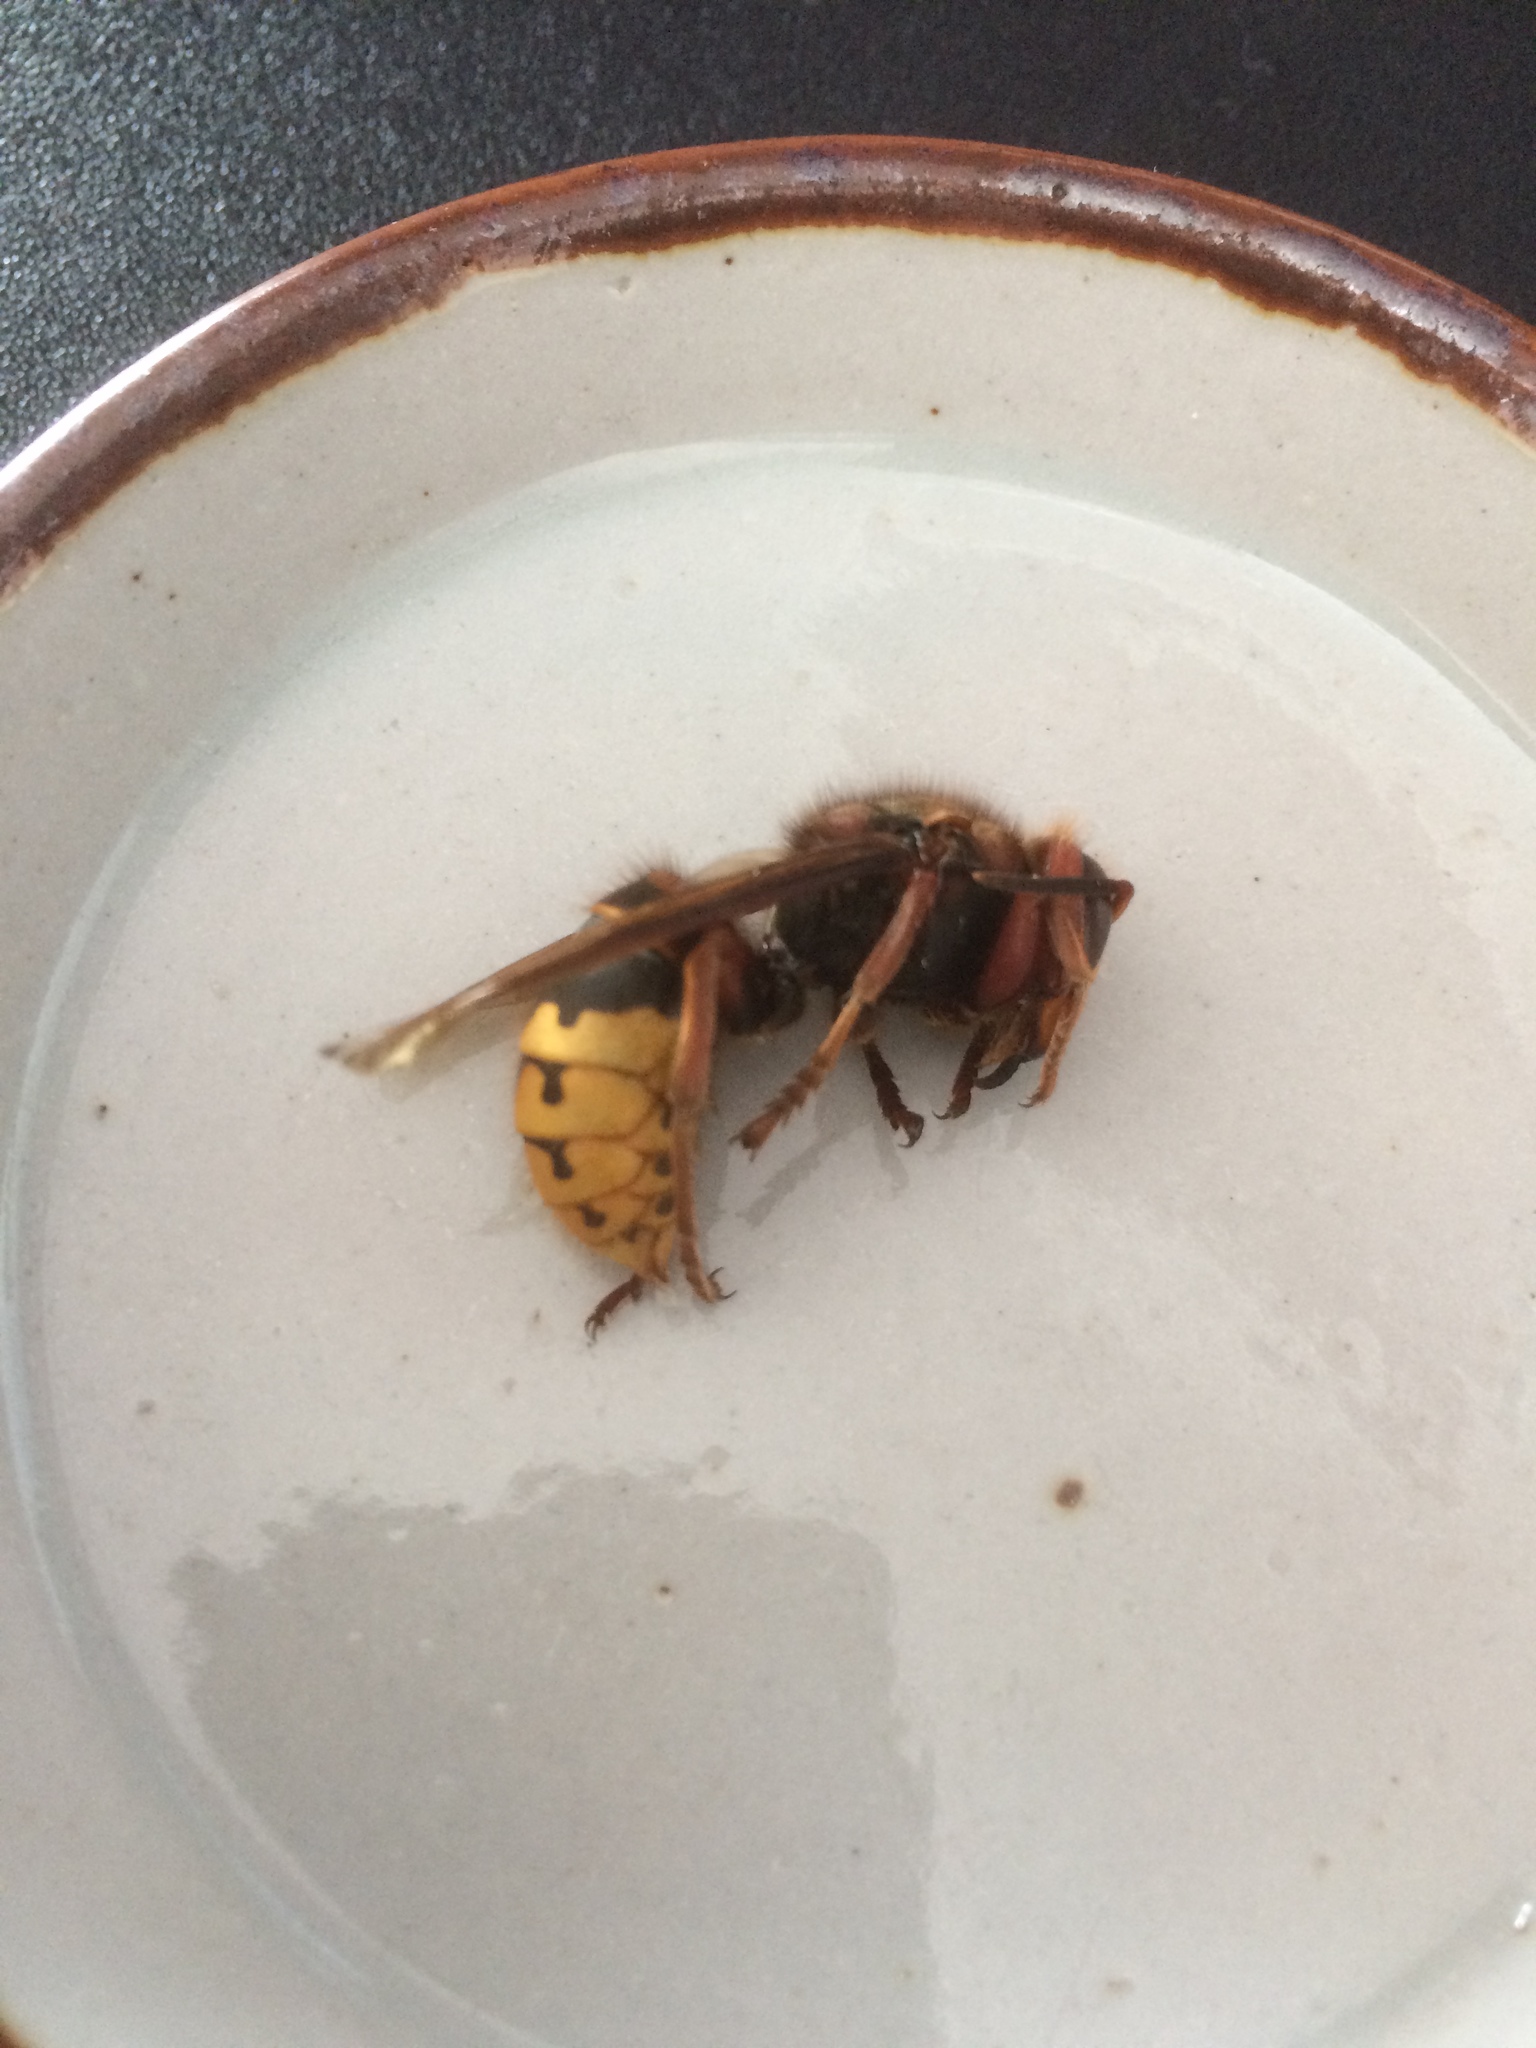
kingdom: Animalia
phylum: Arthropoda
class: Insecta
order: Hymenoptera
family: Vespidae
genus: Vespa
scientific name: Vespa crabro
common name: Hornet
